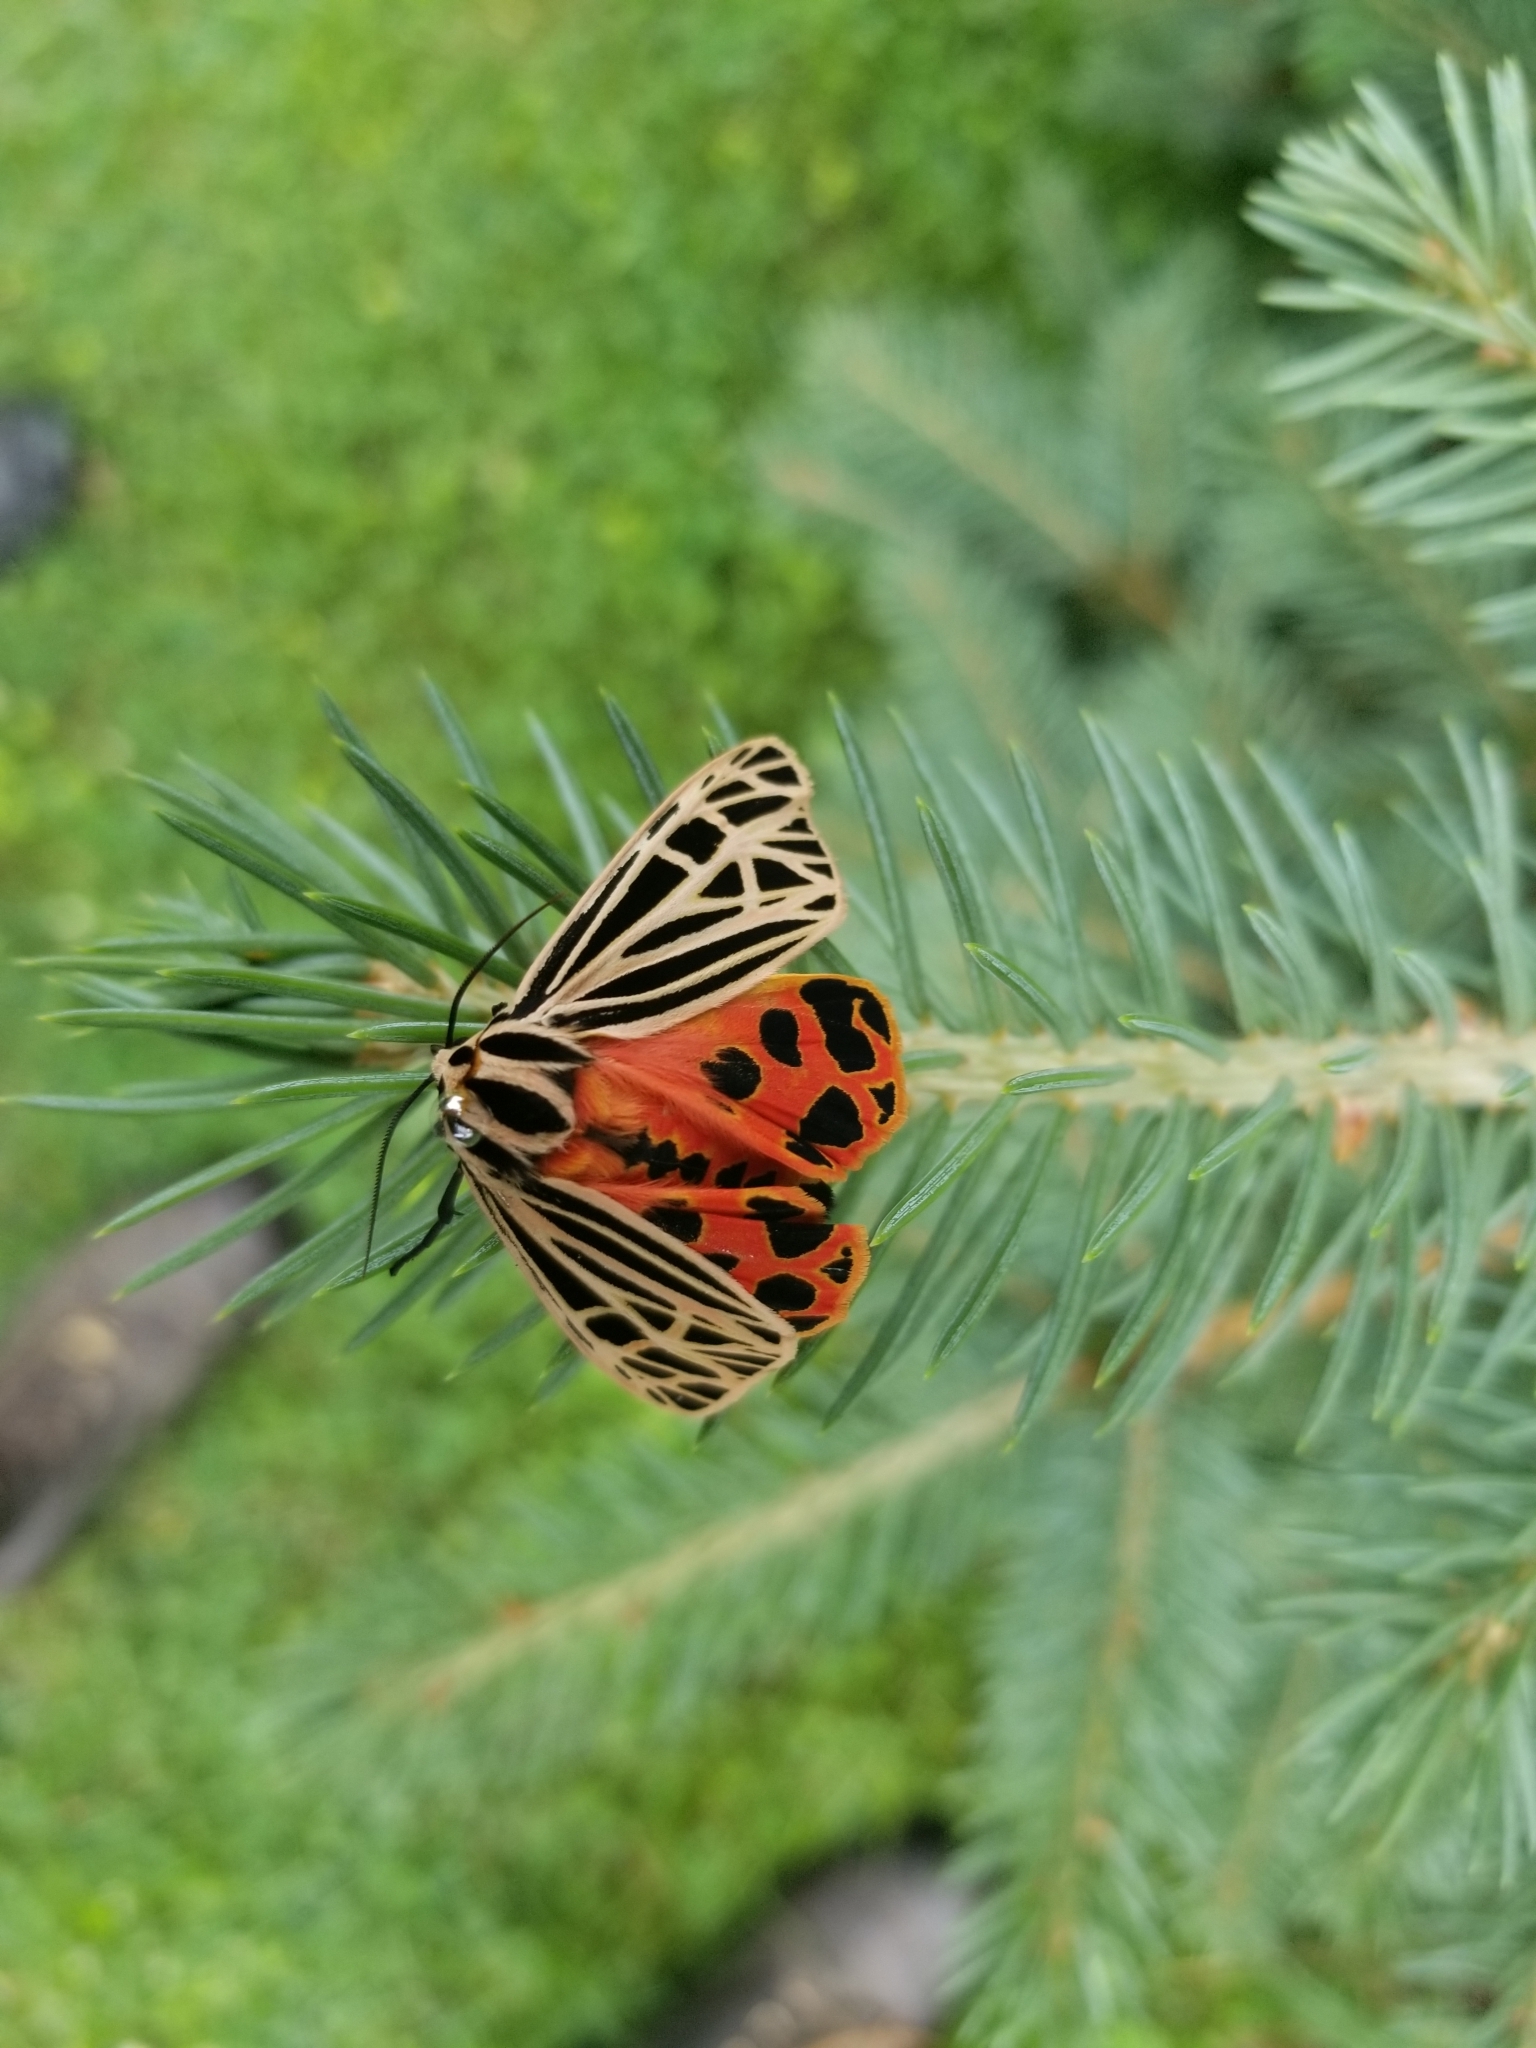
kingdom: Animalia
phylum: Arthropoda
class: Insecta
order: Lepidoptera
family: Erebidae
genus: Grammia
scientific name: Grammia virgo
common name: Virgin tiger moth
